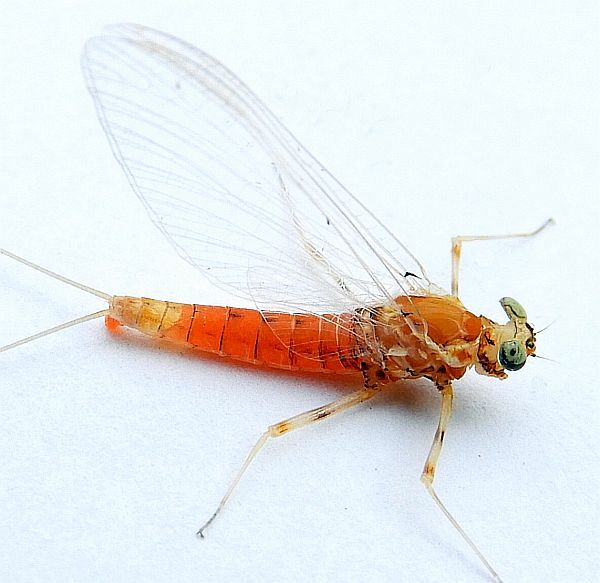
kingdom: Animalia
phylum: Arthropoda
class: Insecta
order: Ephemeroptera
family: Heptageniidae
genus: Epeorus
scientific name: Epeorus vitreus
